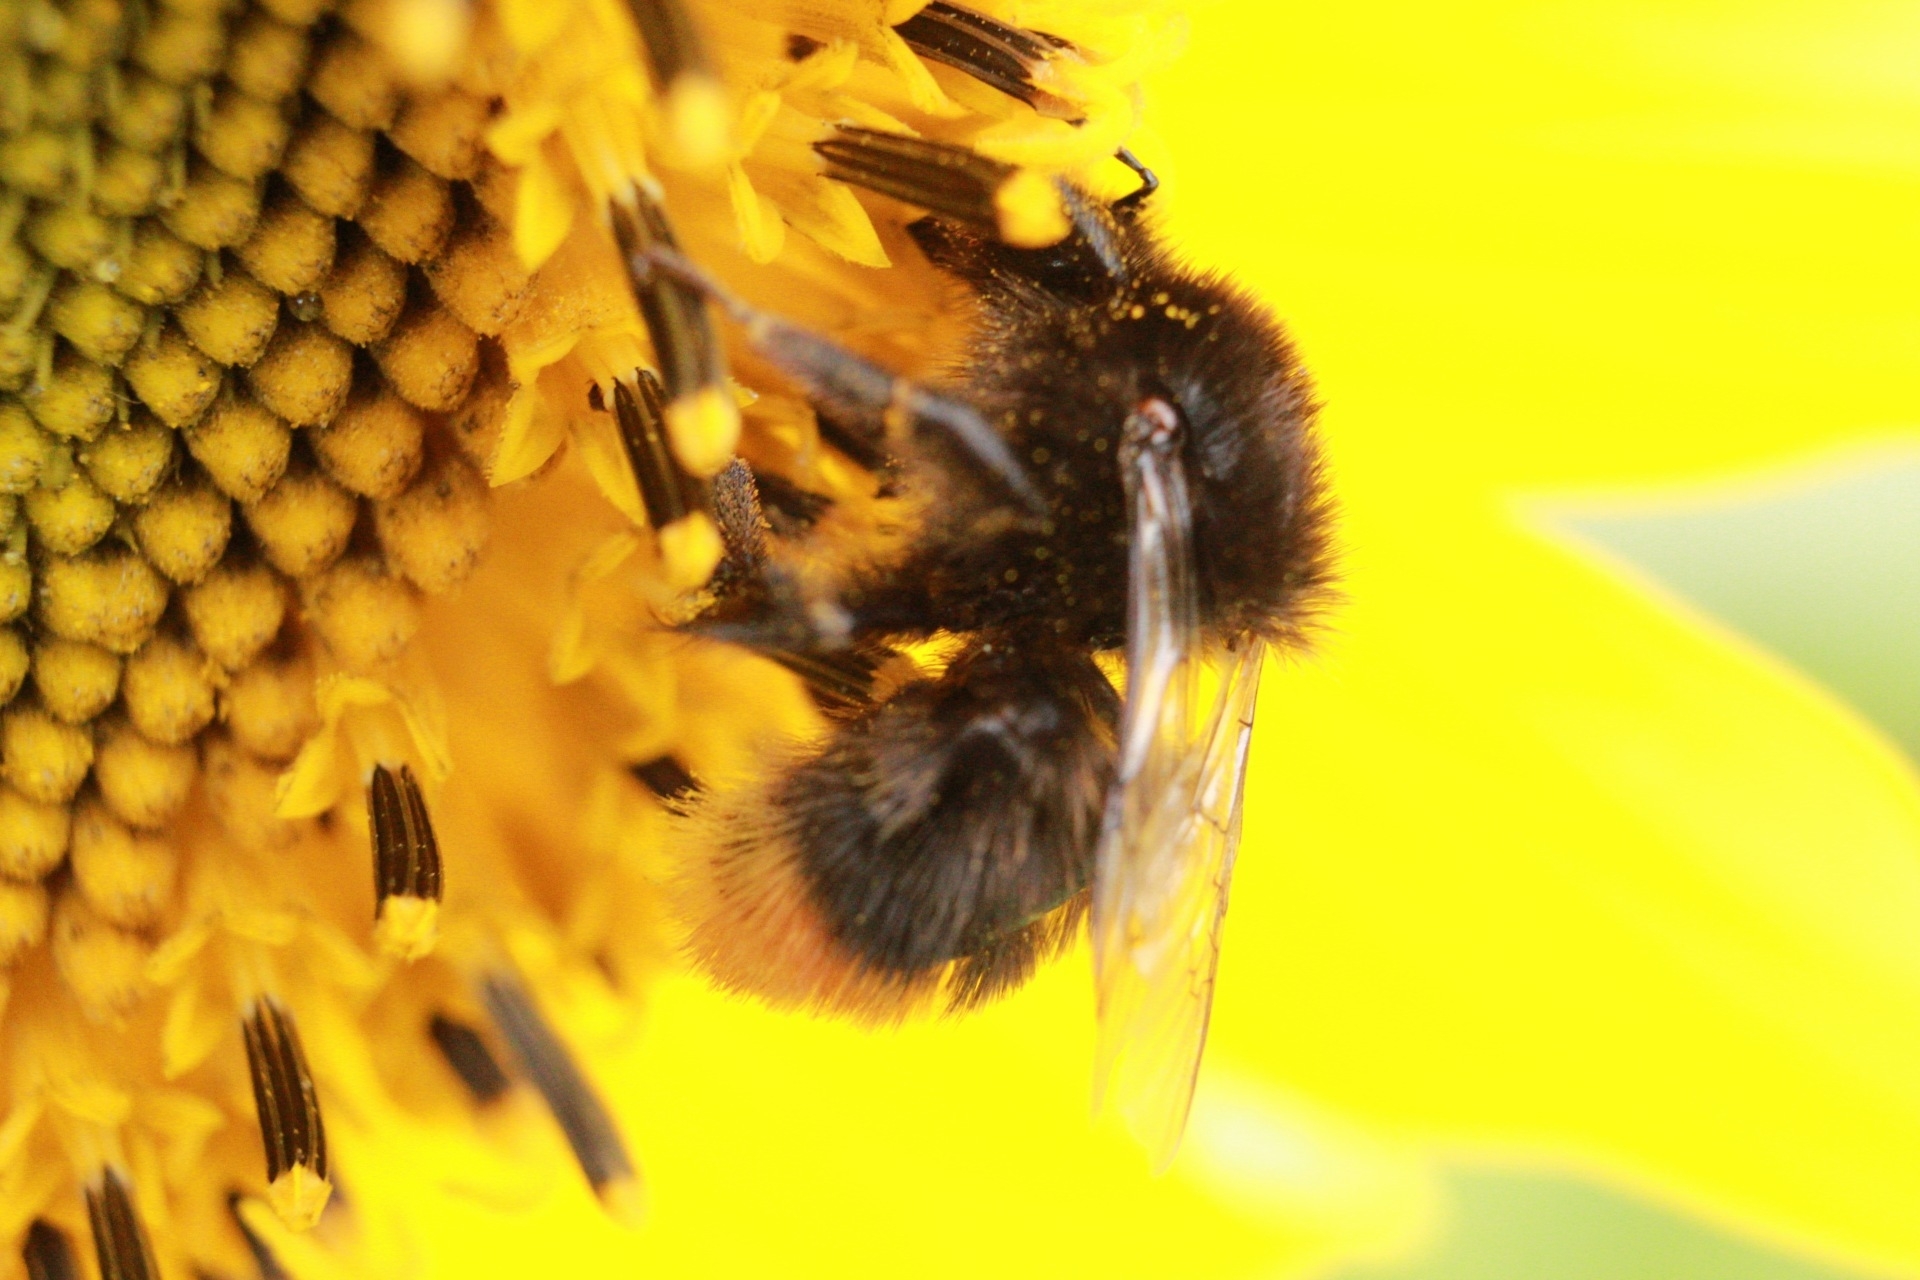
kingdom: Animalia
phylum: Arthropoda
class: Insecta
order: Hymenoptera
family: Apidae
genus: Bombus
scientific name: Bombus lapidarius
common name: Large red-tailed humble-bee
